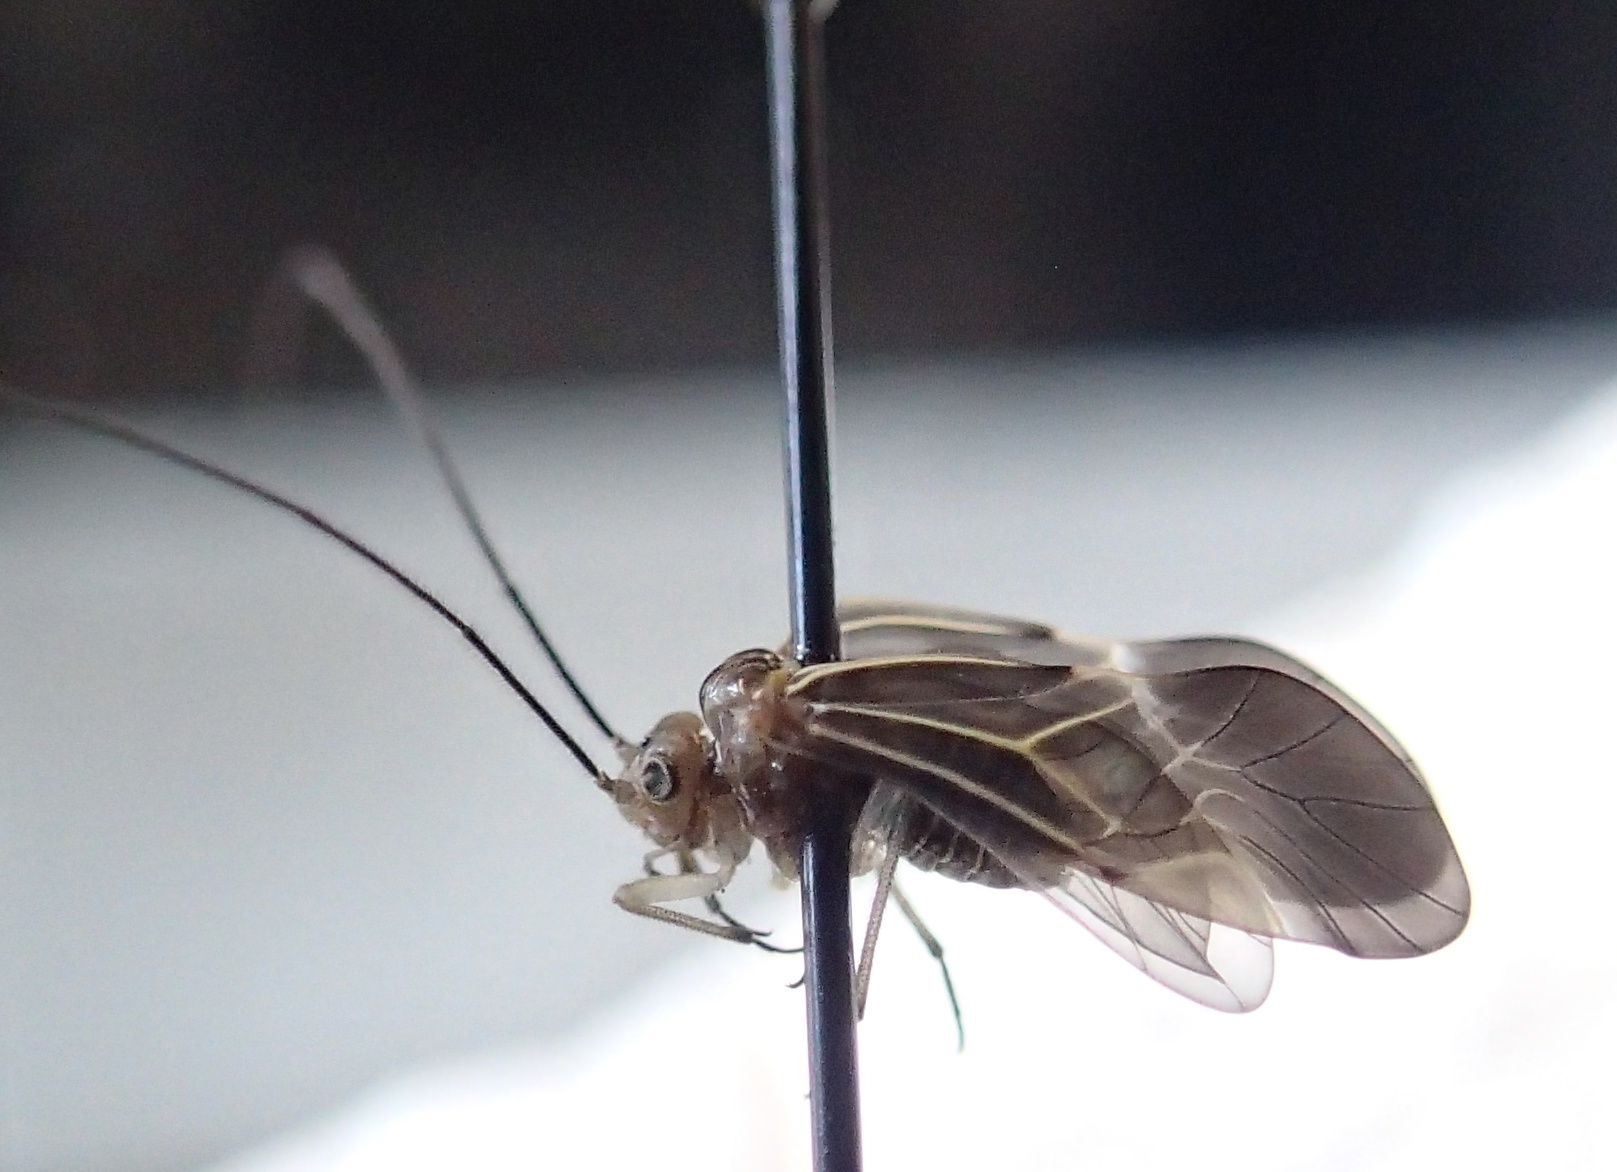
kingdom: Animalia
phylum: Arthropoda
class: Insecta
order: Psocodea
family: Psocidae
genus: Cerastipsocus
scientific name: Cerastipsocus venosus
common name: Tree cattle
